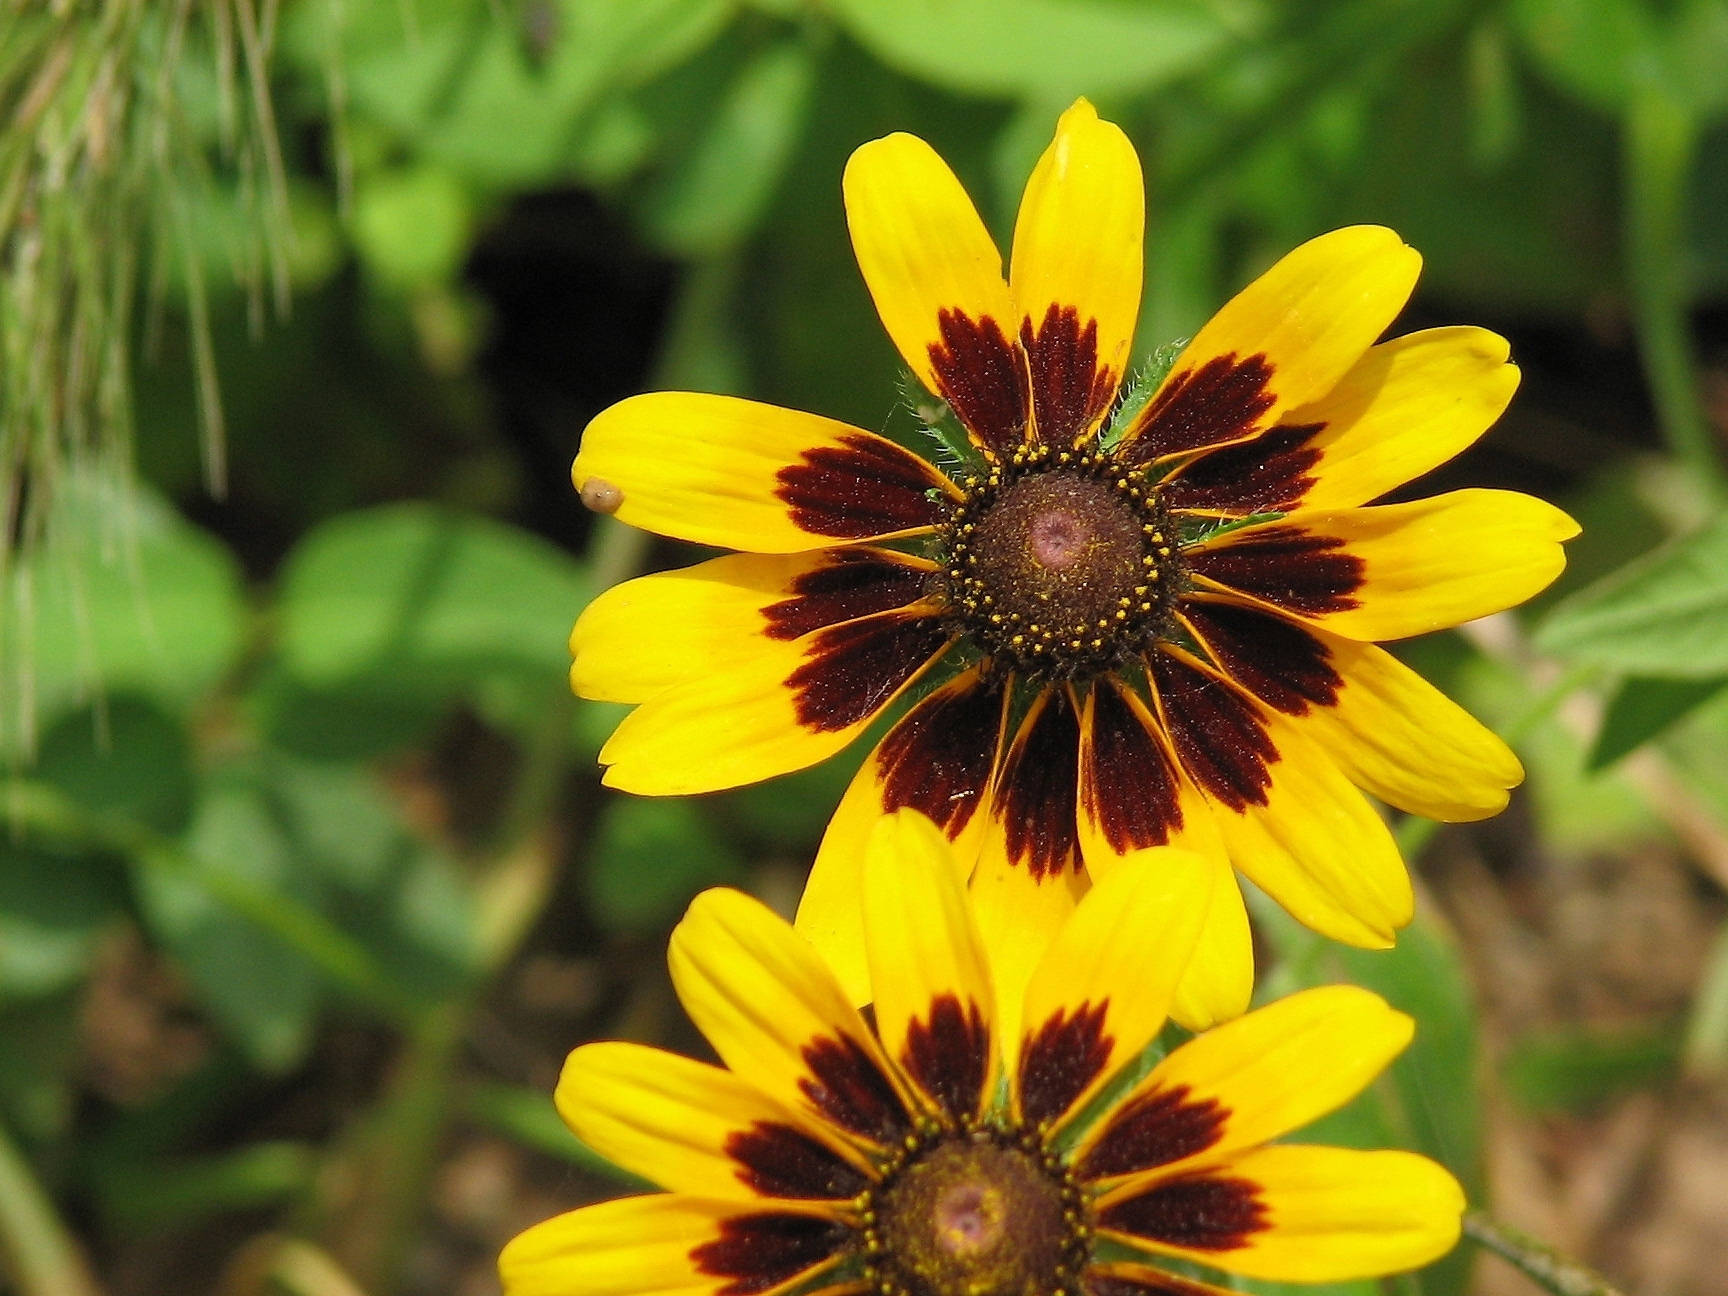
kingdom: Plantae
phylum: Tracheophyta
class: Magnoliopsida
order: Asterales
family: Asteraceae
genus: Rudbeckia
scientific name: Rudbeckia hirta
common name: Black-eyed-susan
